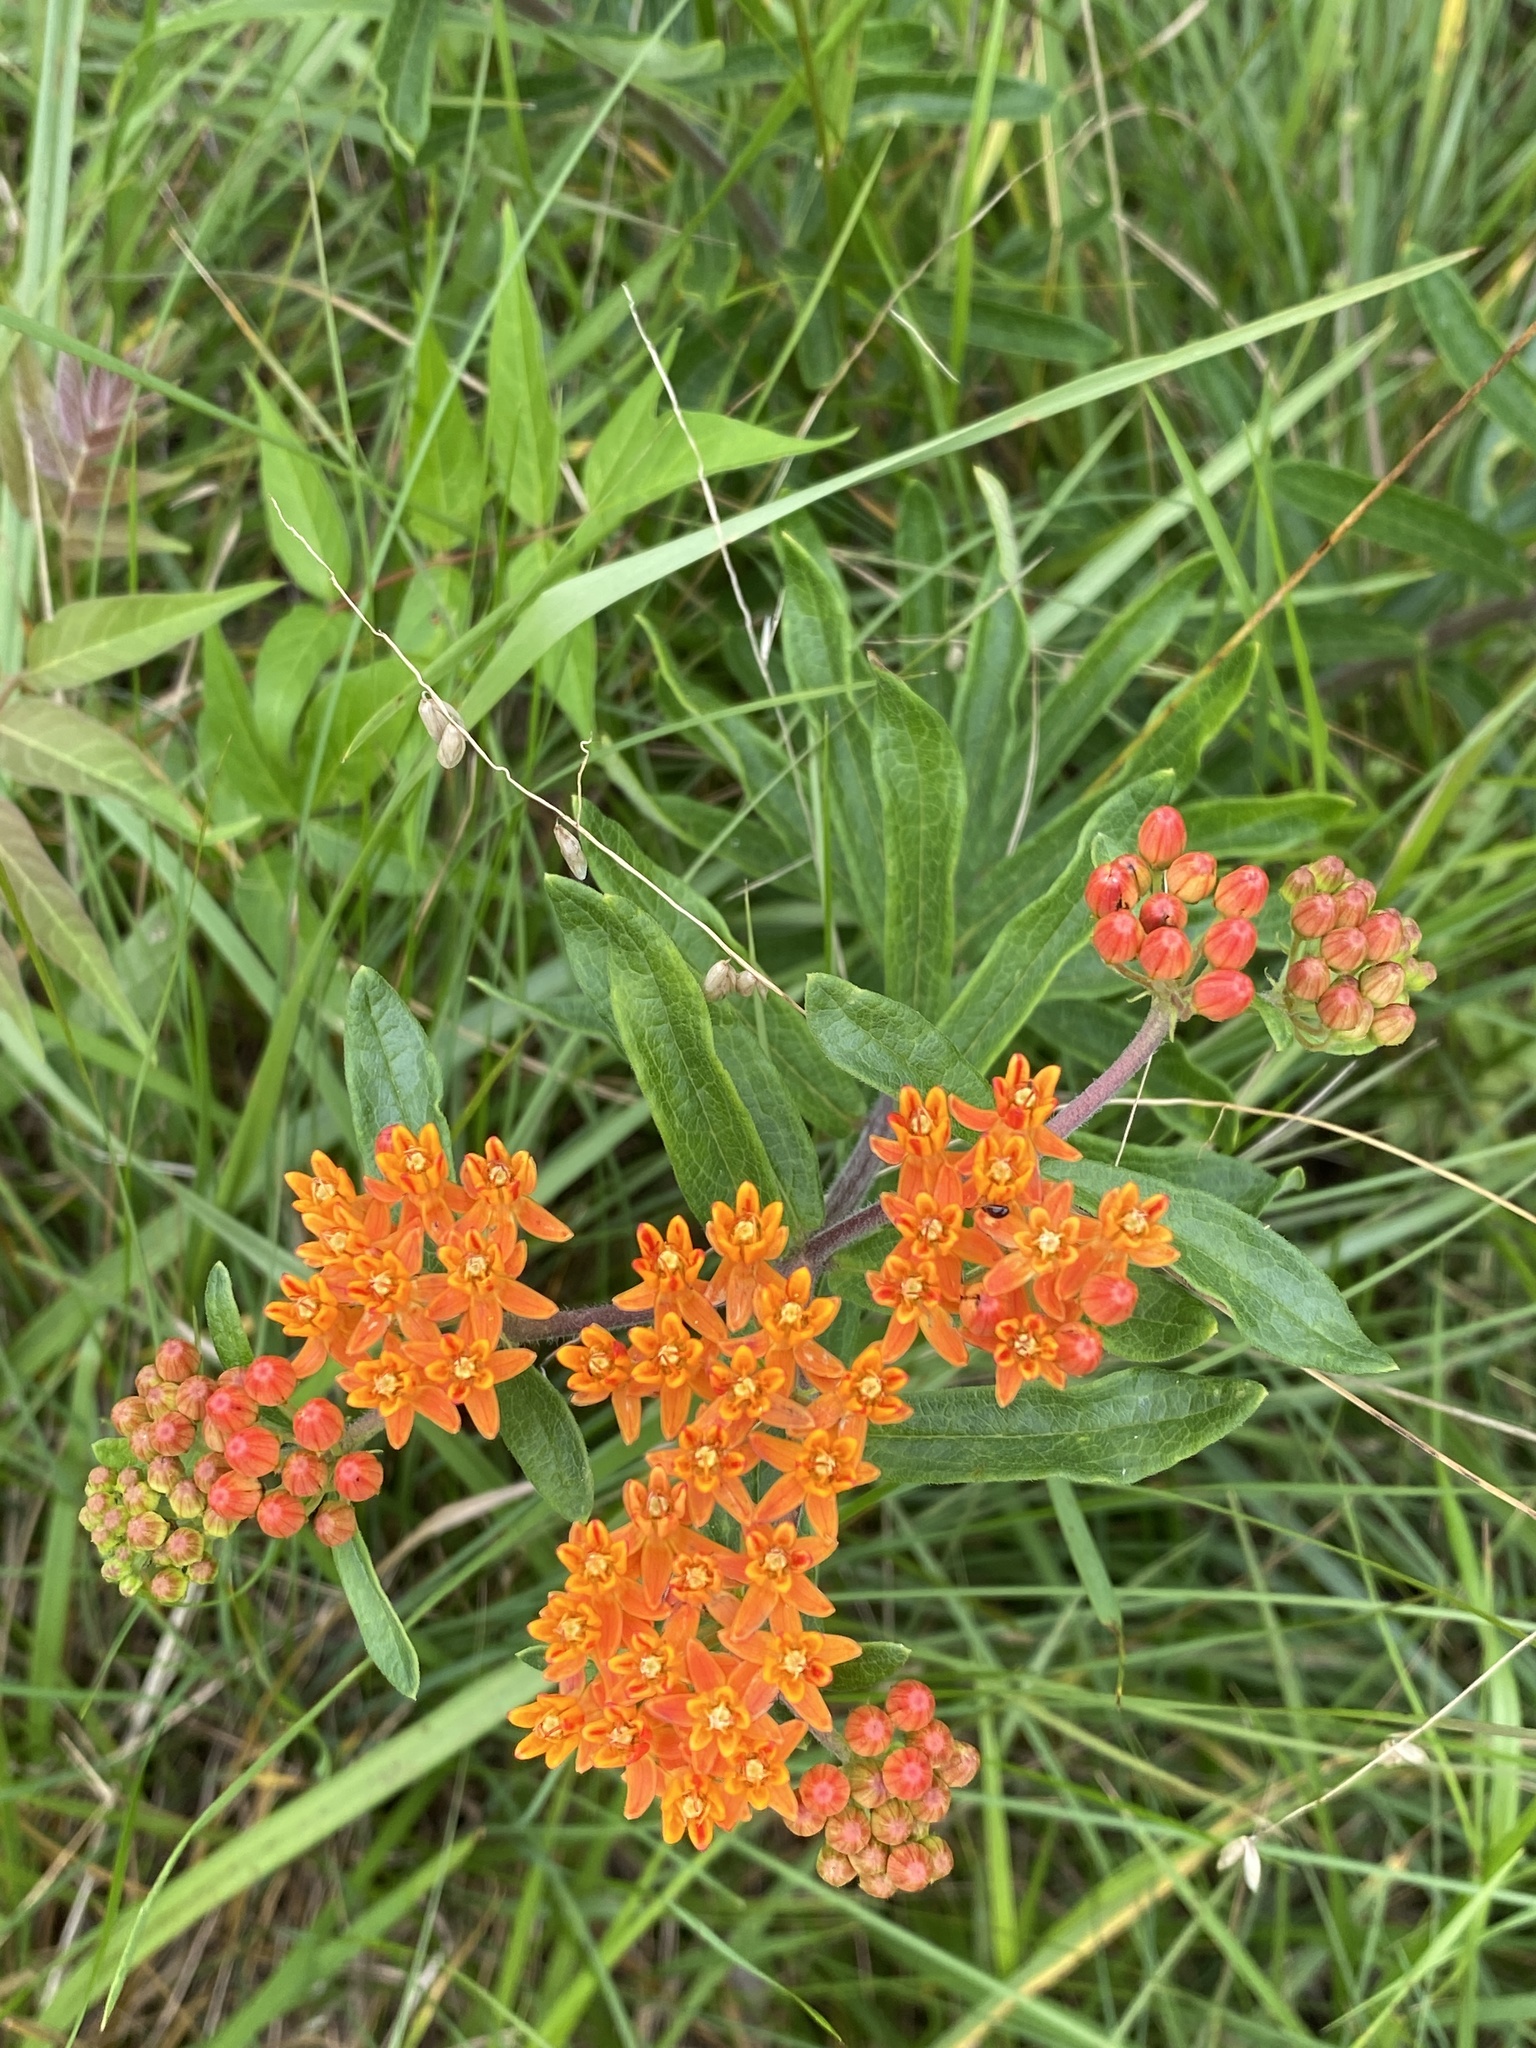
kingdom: Plantae
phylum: Tracheophyta
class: Magnoliopsida
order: Gentianales
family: Apocynaceae
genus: Asclepias
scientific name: Asclepias tuberosa
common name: Butterfly milkweed
